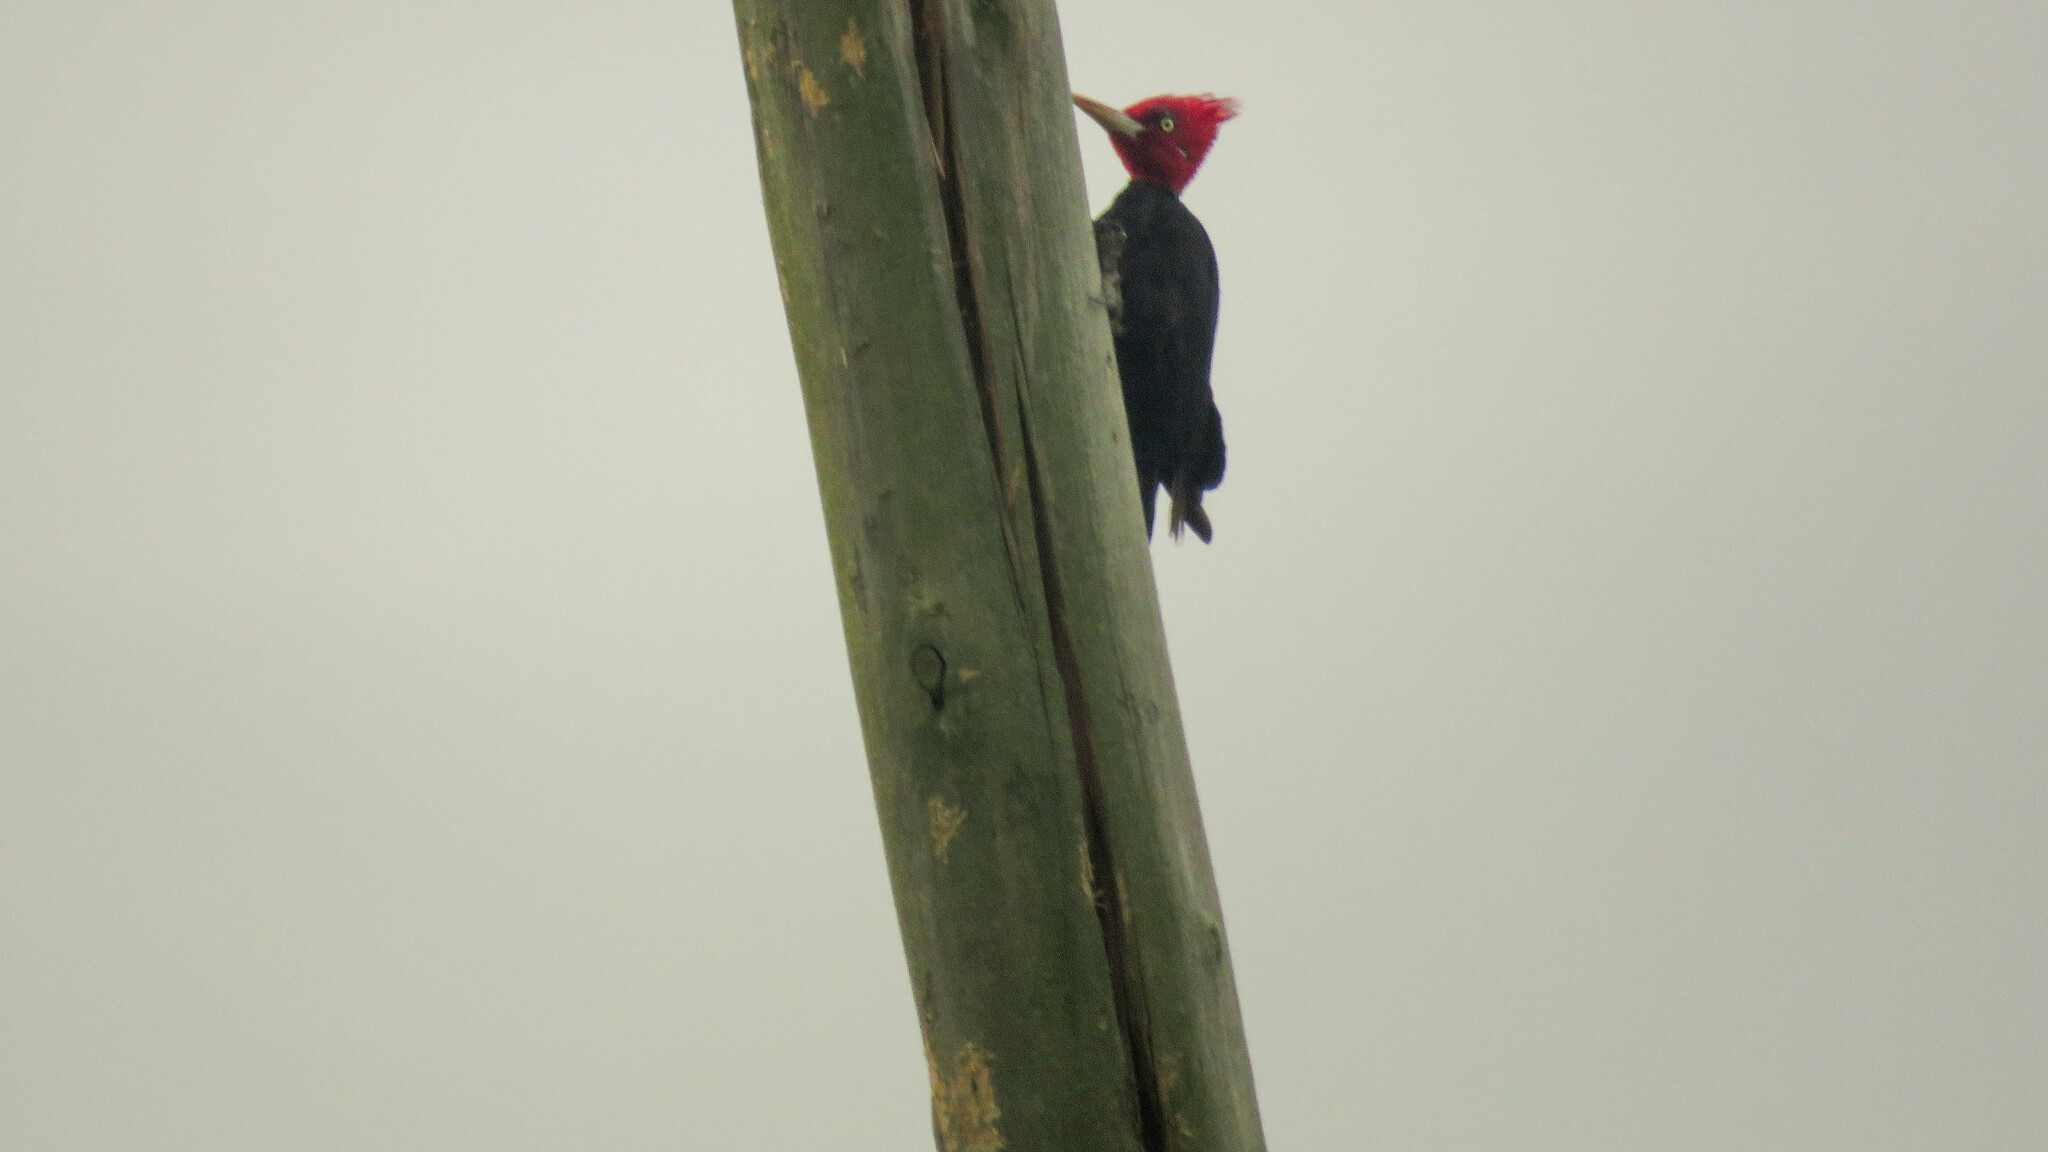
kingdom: Animalia
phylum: Chordata
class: Aves
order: Piciformes
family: Picidae
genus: Campephilus
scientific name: Campephilus leucopogon
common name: Cream-backed woodpecker
